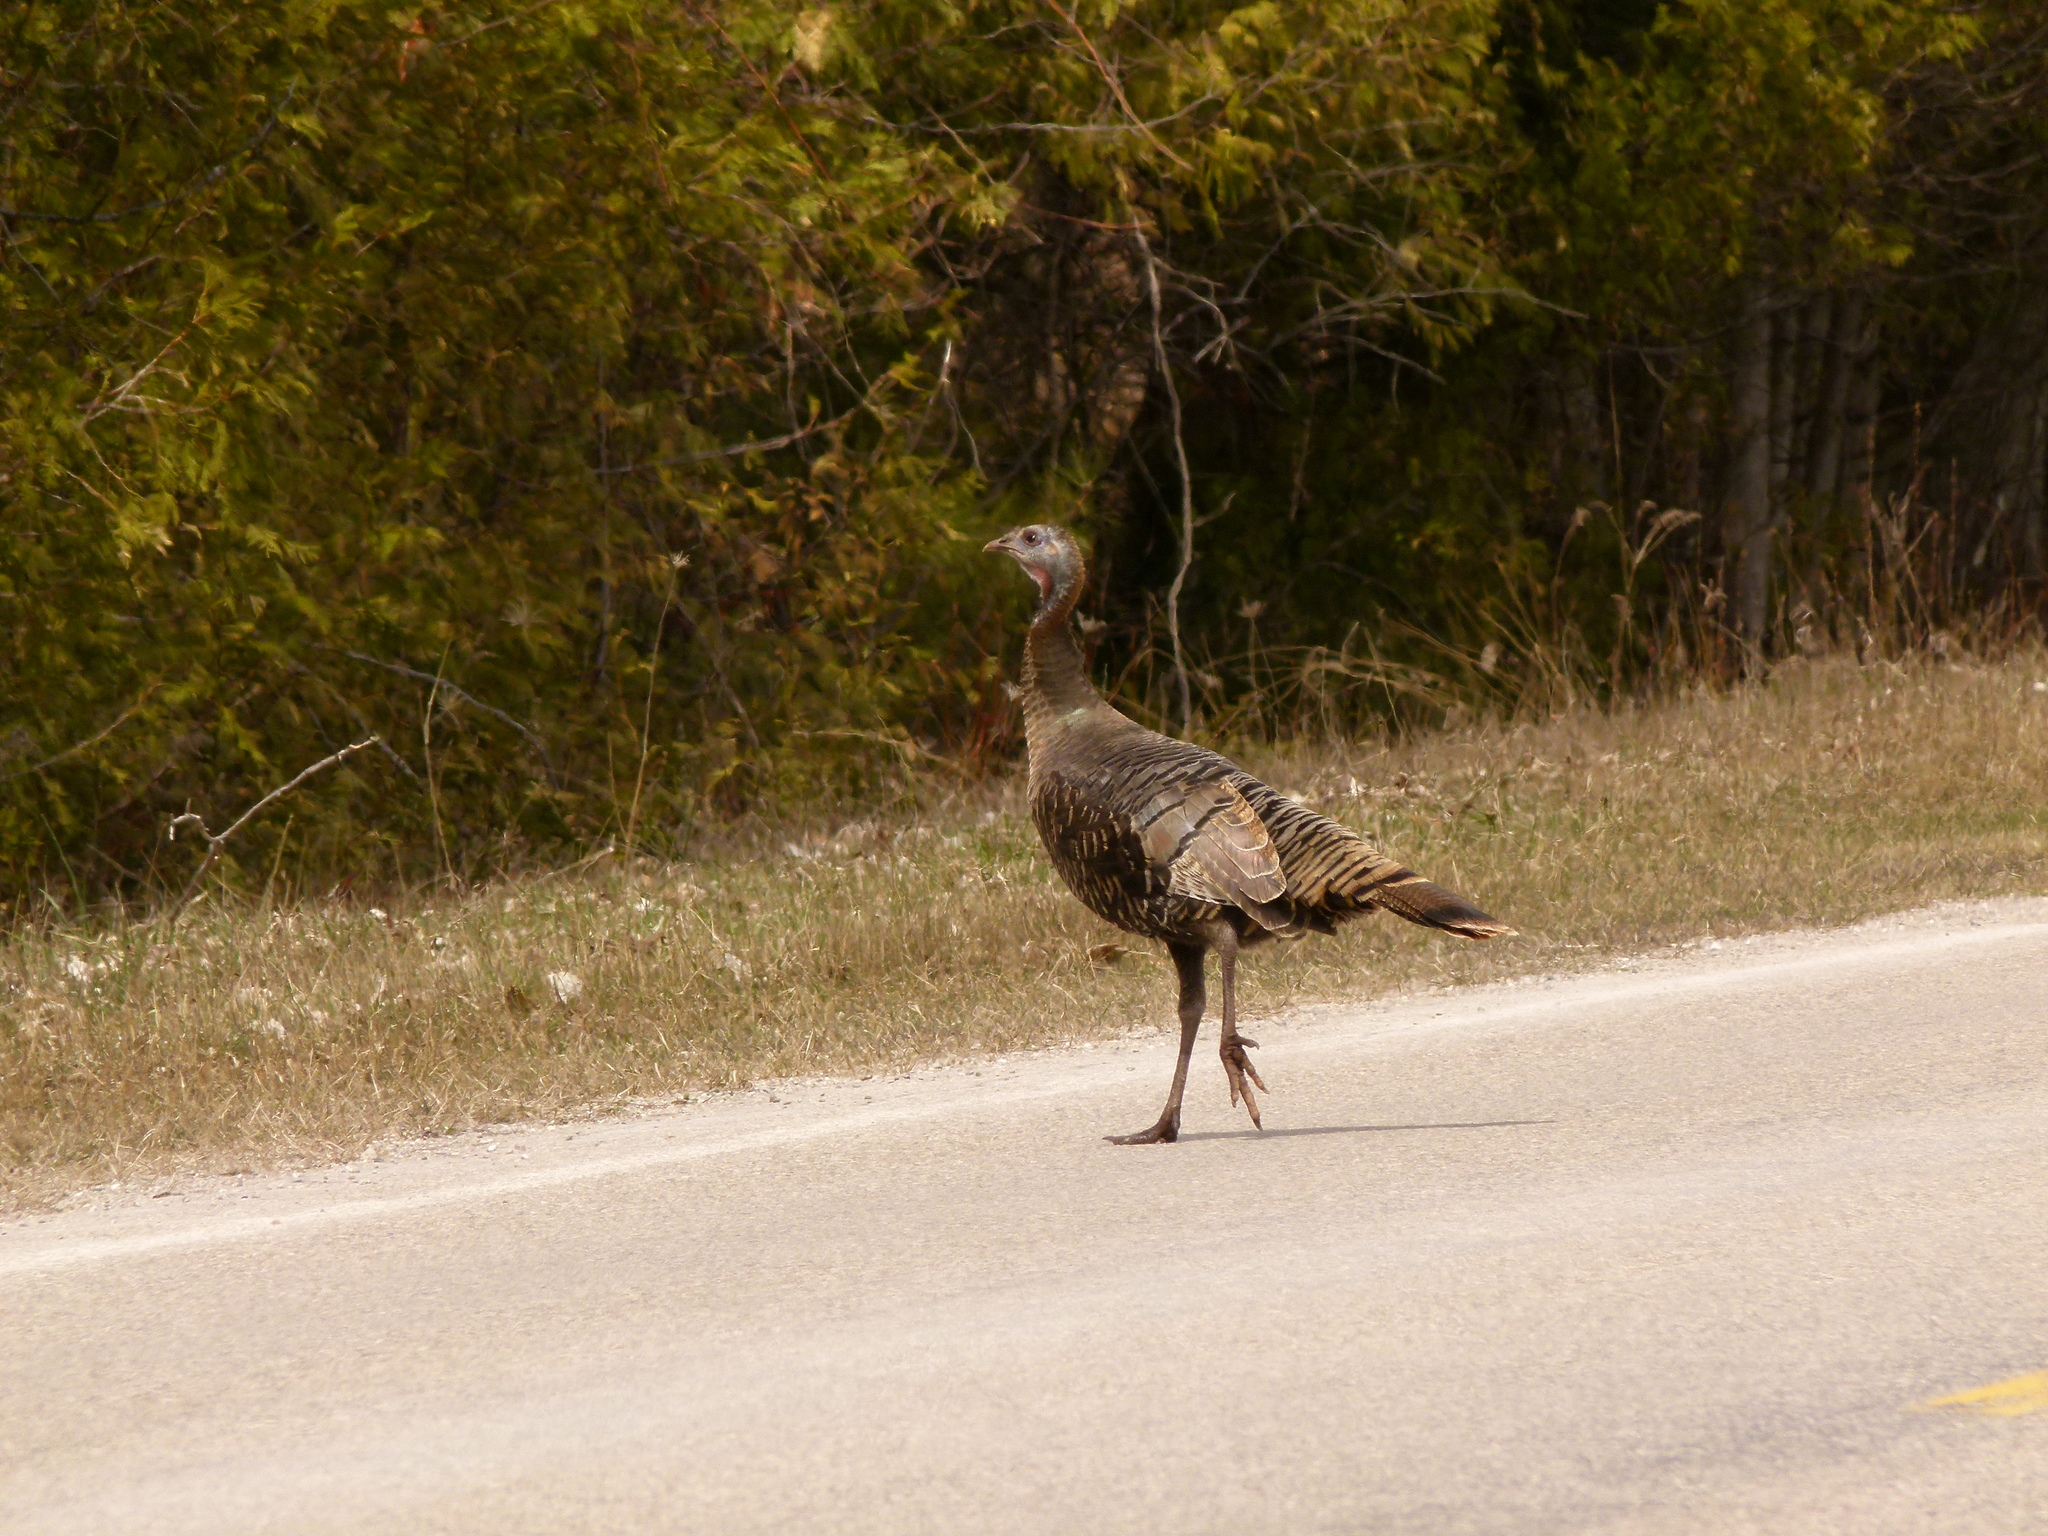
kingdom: Animalia
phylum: Chordata
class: Aves
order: Galliformes
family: Phasianidae
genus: Meleagris
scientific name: Meleagris gallopavo
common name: Wild turkey
